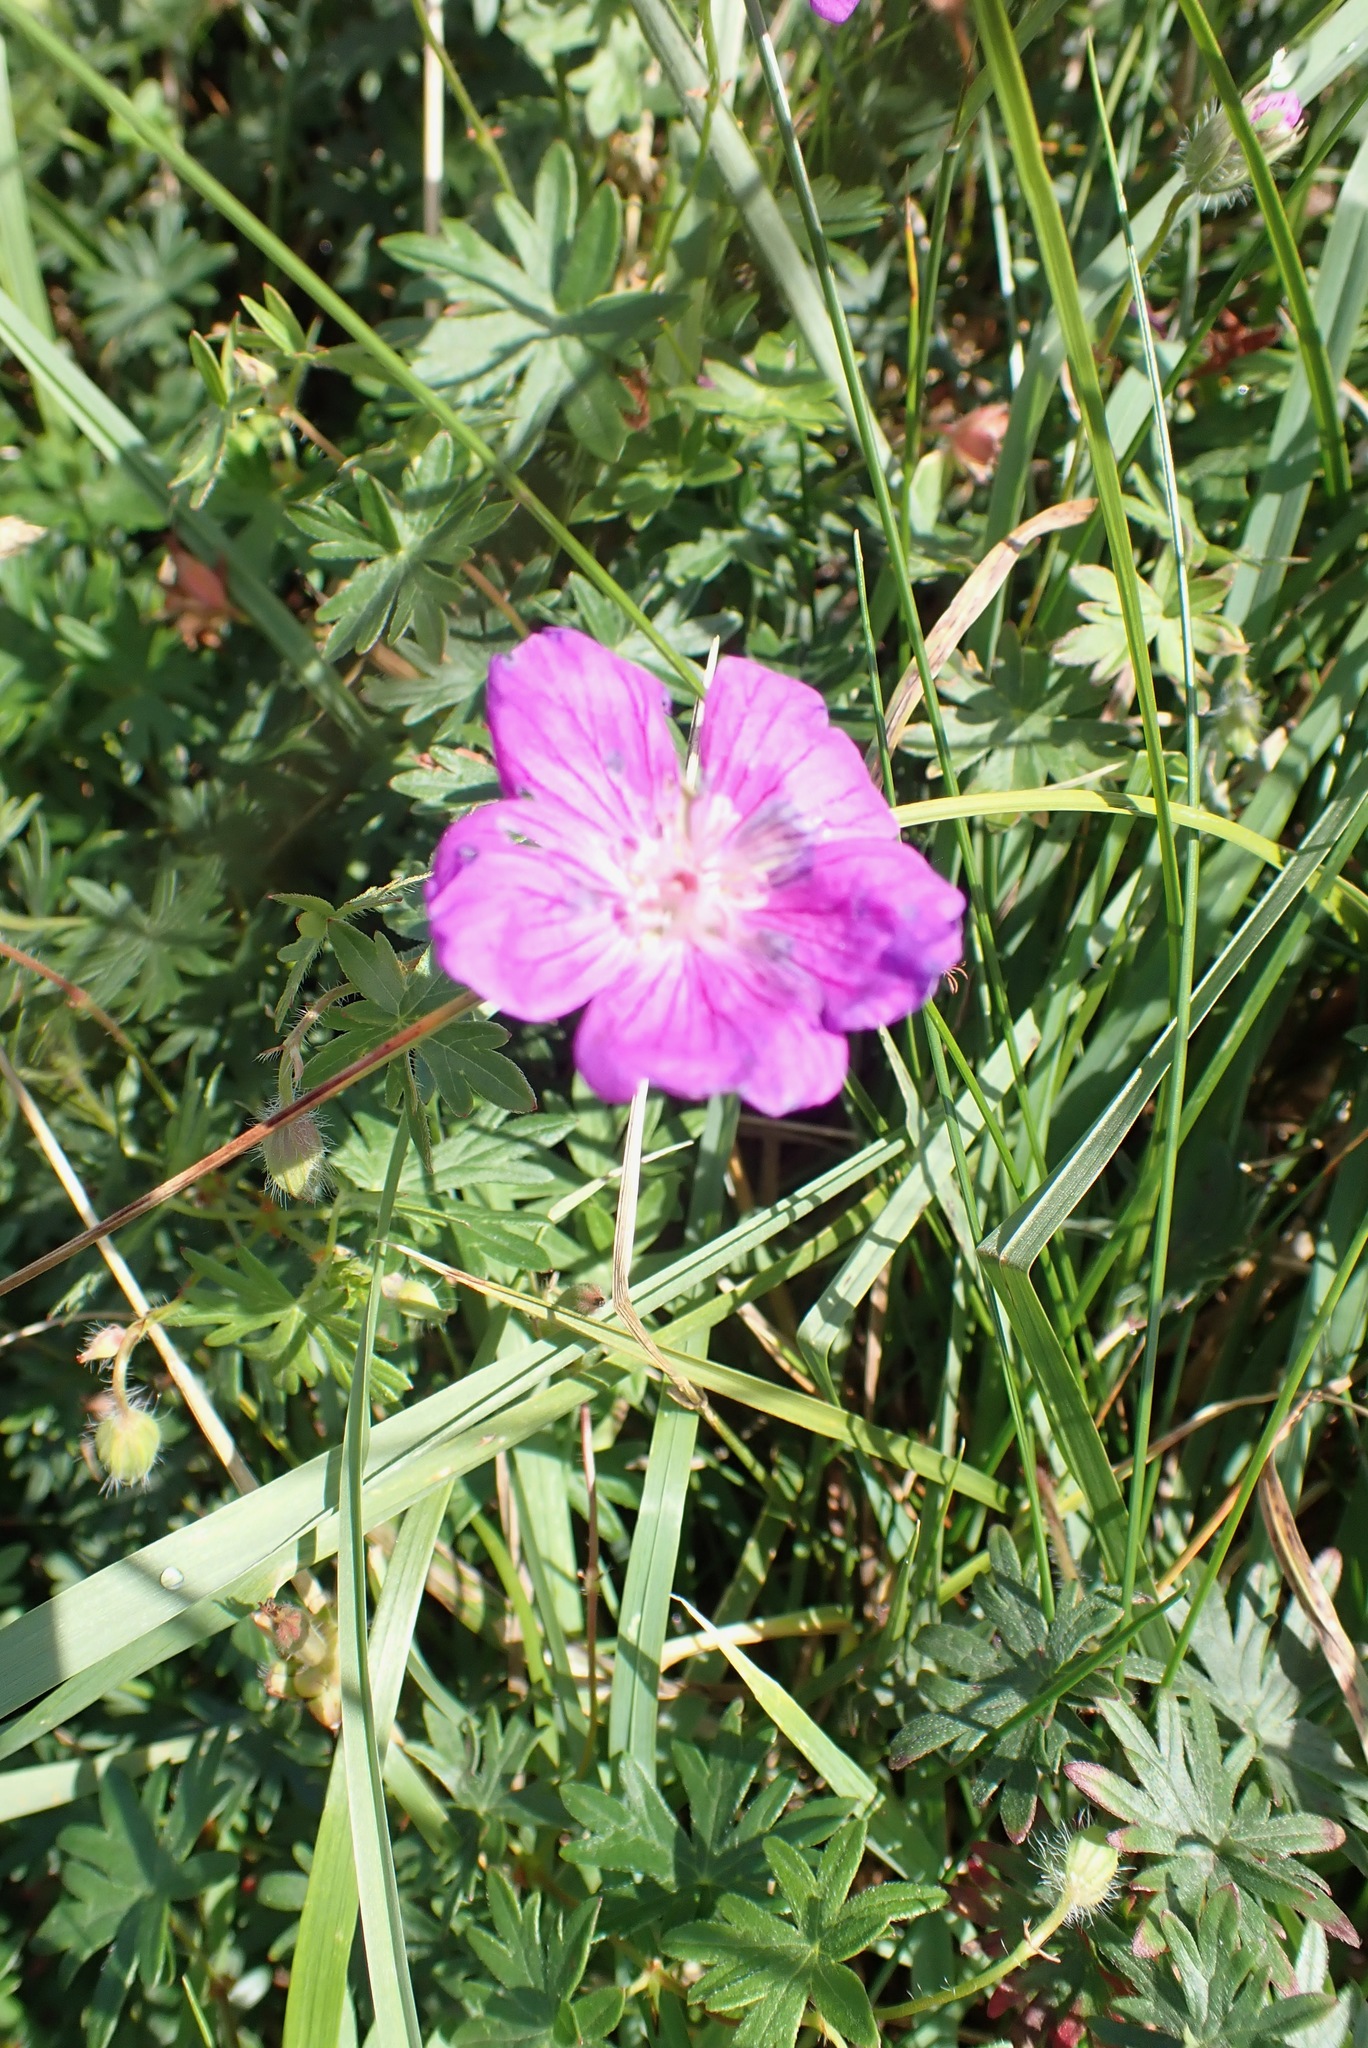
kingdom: Plantae
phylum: Tracheophyta
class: Magnoliopsida
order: Geraniales
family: Geraniaceae
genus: Geranium
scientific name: Geranium sanguineum
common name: Bloody crane's-bill
